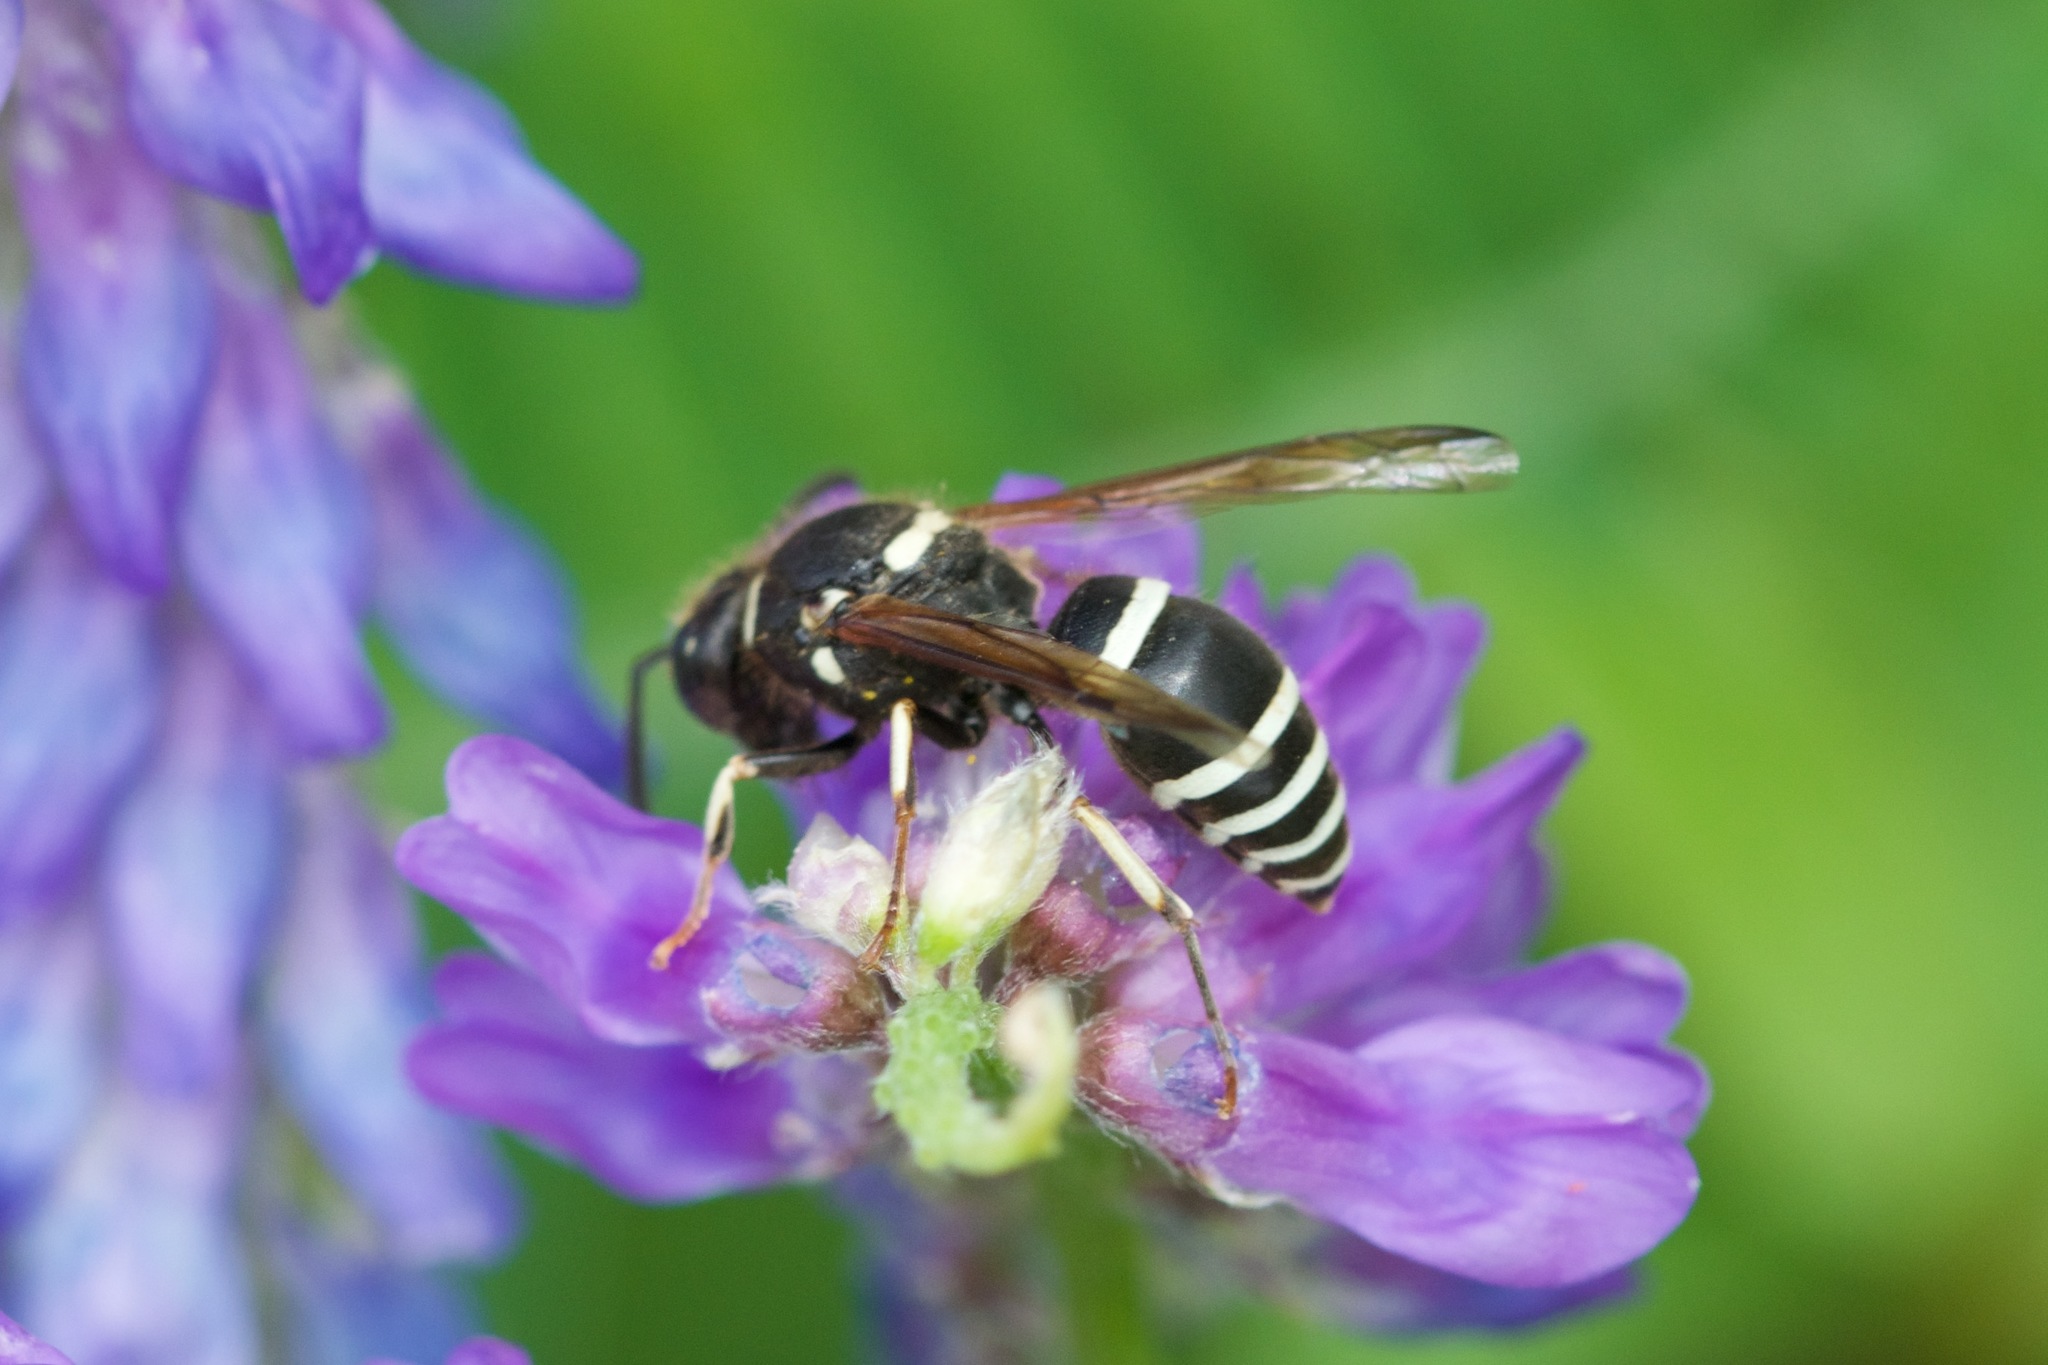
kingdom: Animalia
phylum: Arthropoda
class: Insecta
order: Hymenoptera
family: Vespidae
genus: Ancistrocerus
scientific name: Ancistrocerus waldenii
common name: Walden’s potter wasp
